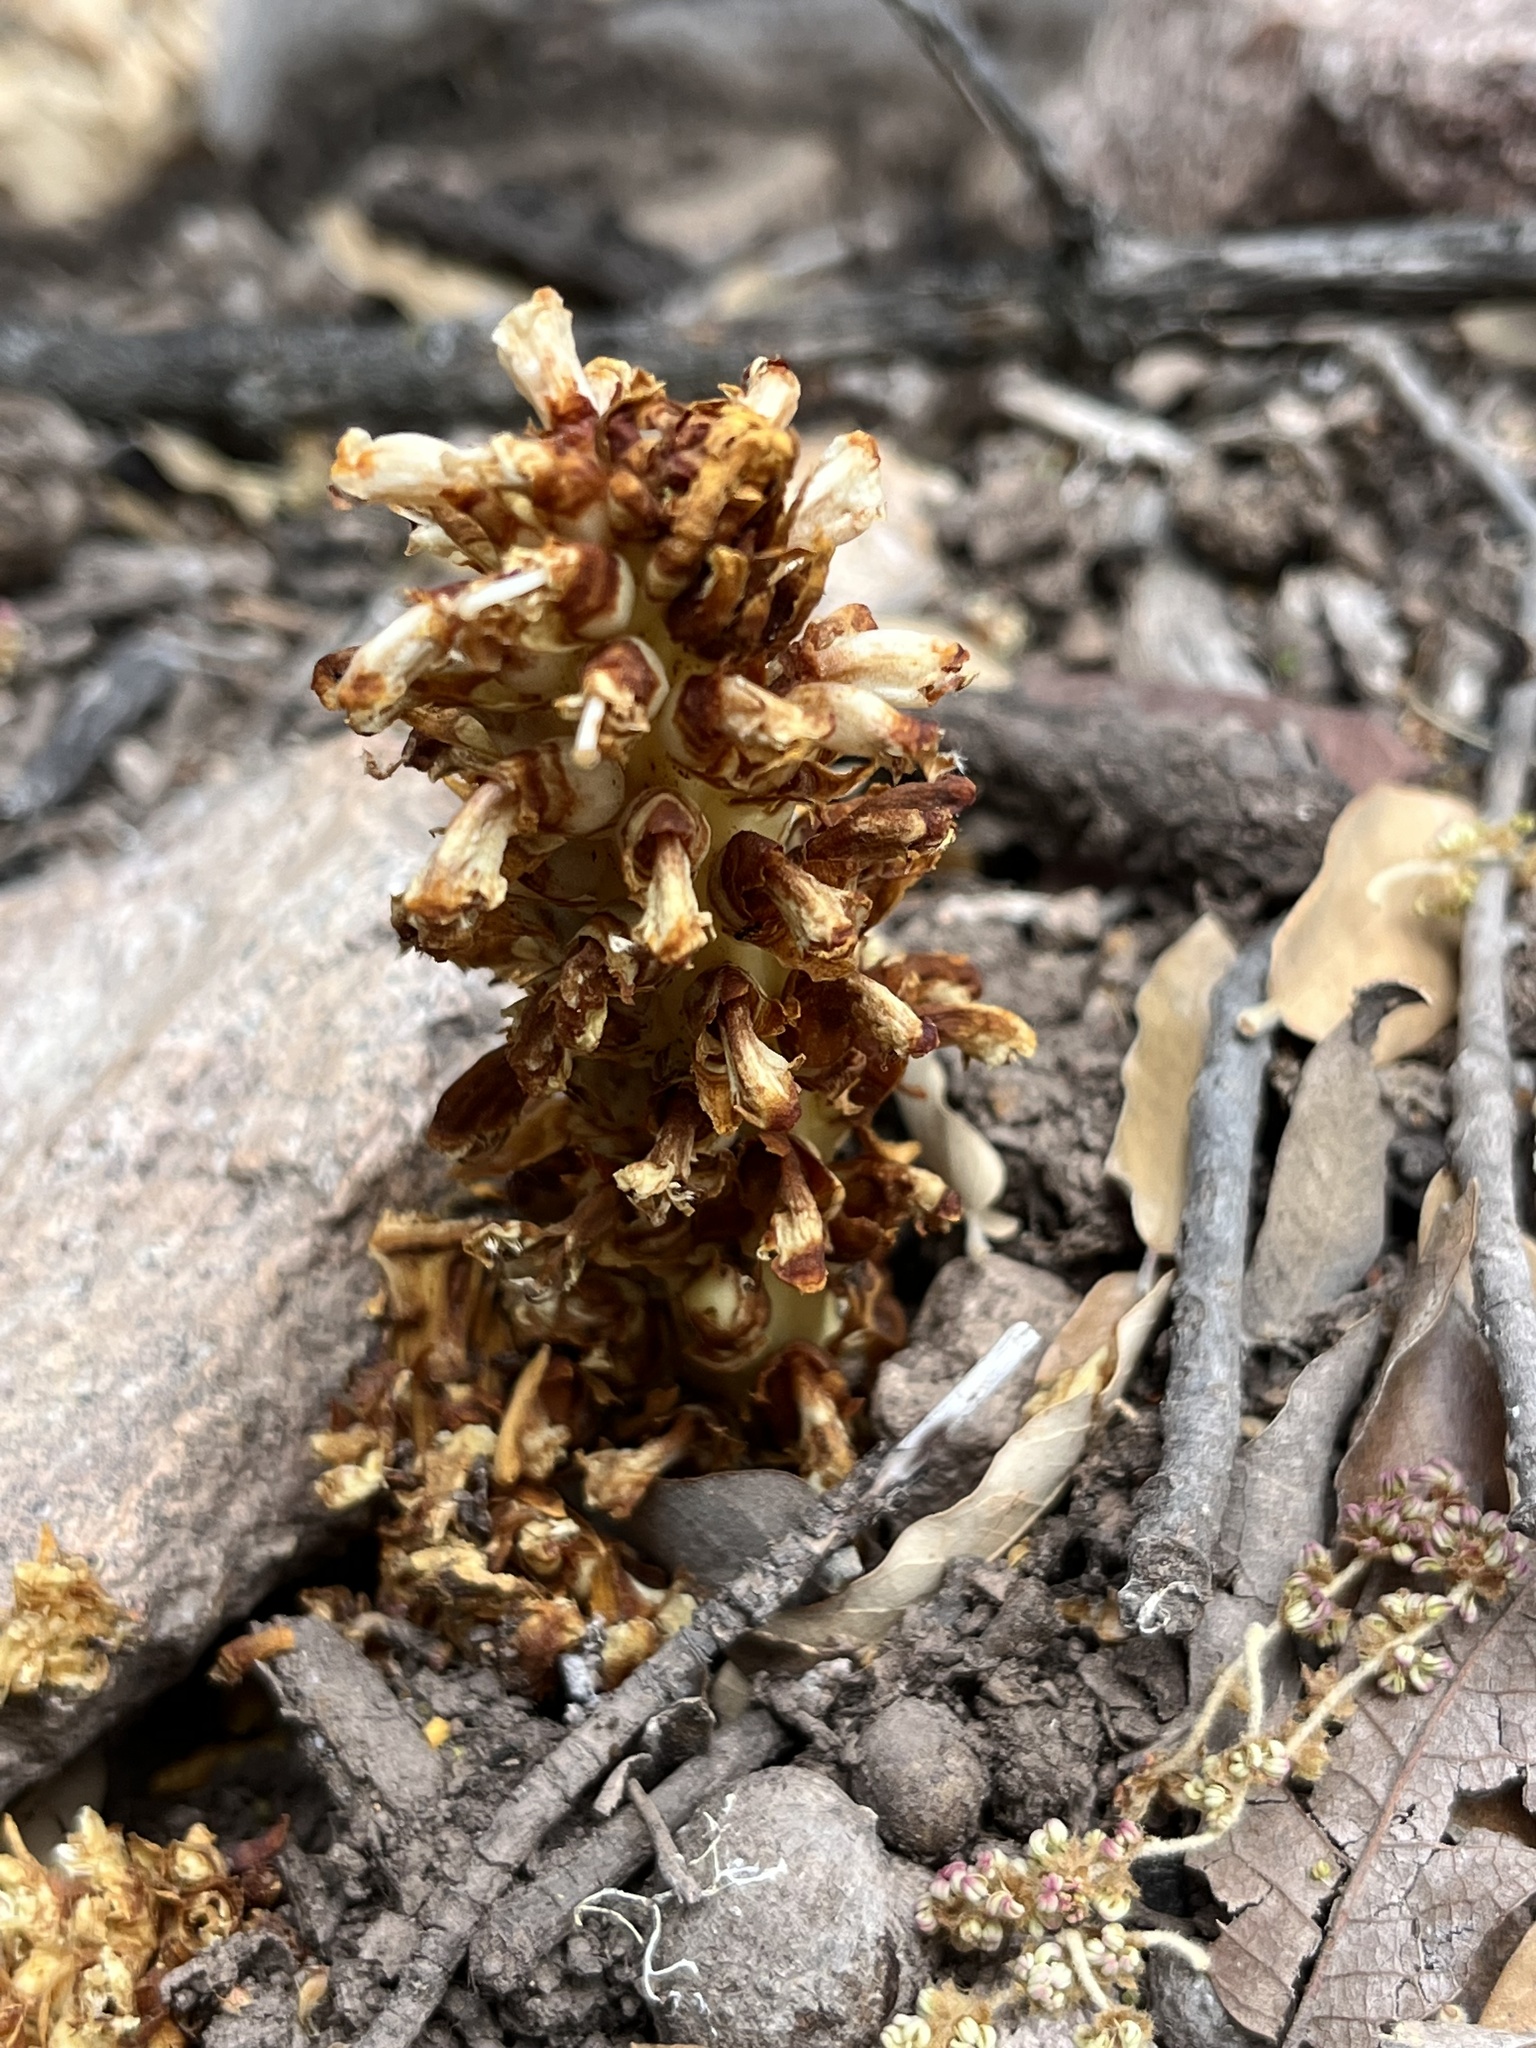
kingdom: Plantae
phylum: Tracheophyta
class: Magnoliopsida
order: Lamiales
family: Orobanchaceae
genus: Conopholis
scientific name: Conopholis alpina
